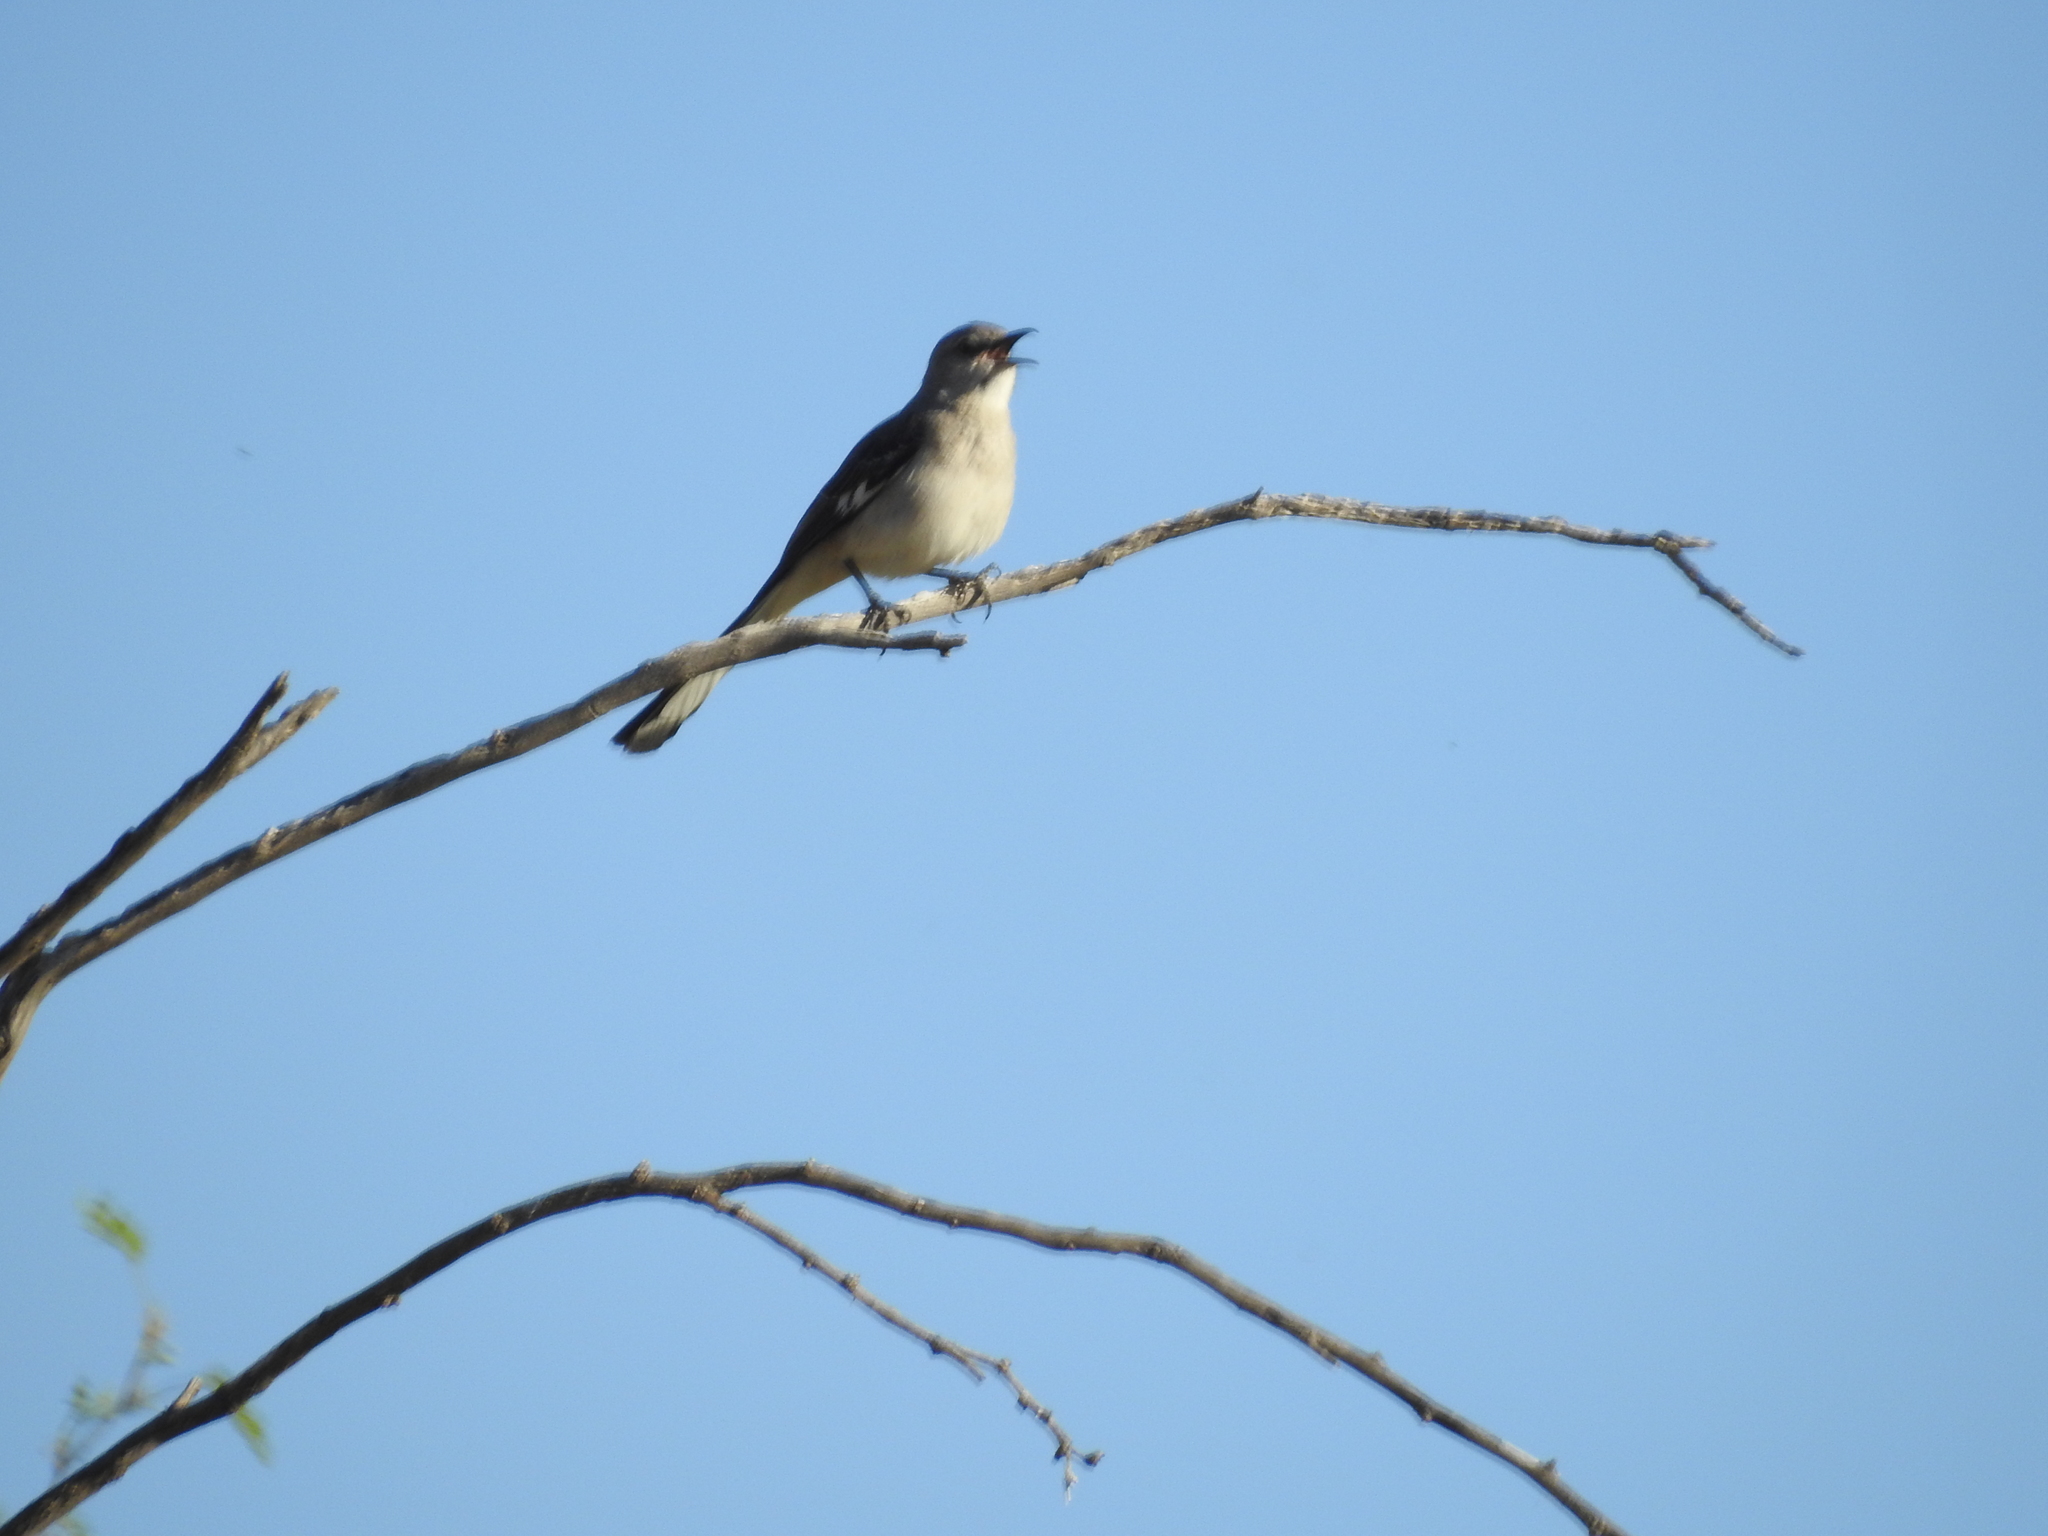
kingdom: Animalia
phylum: Chordata
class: Aves
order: Passeriformes
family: Mimidae
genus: Mimus
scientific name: Mimus polyglottos
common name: Northern mockingbird
